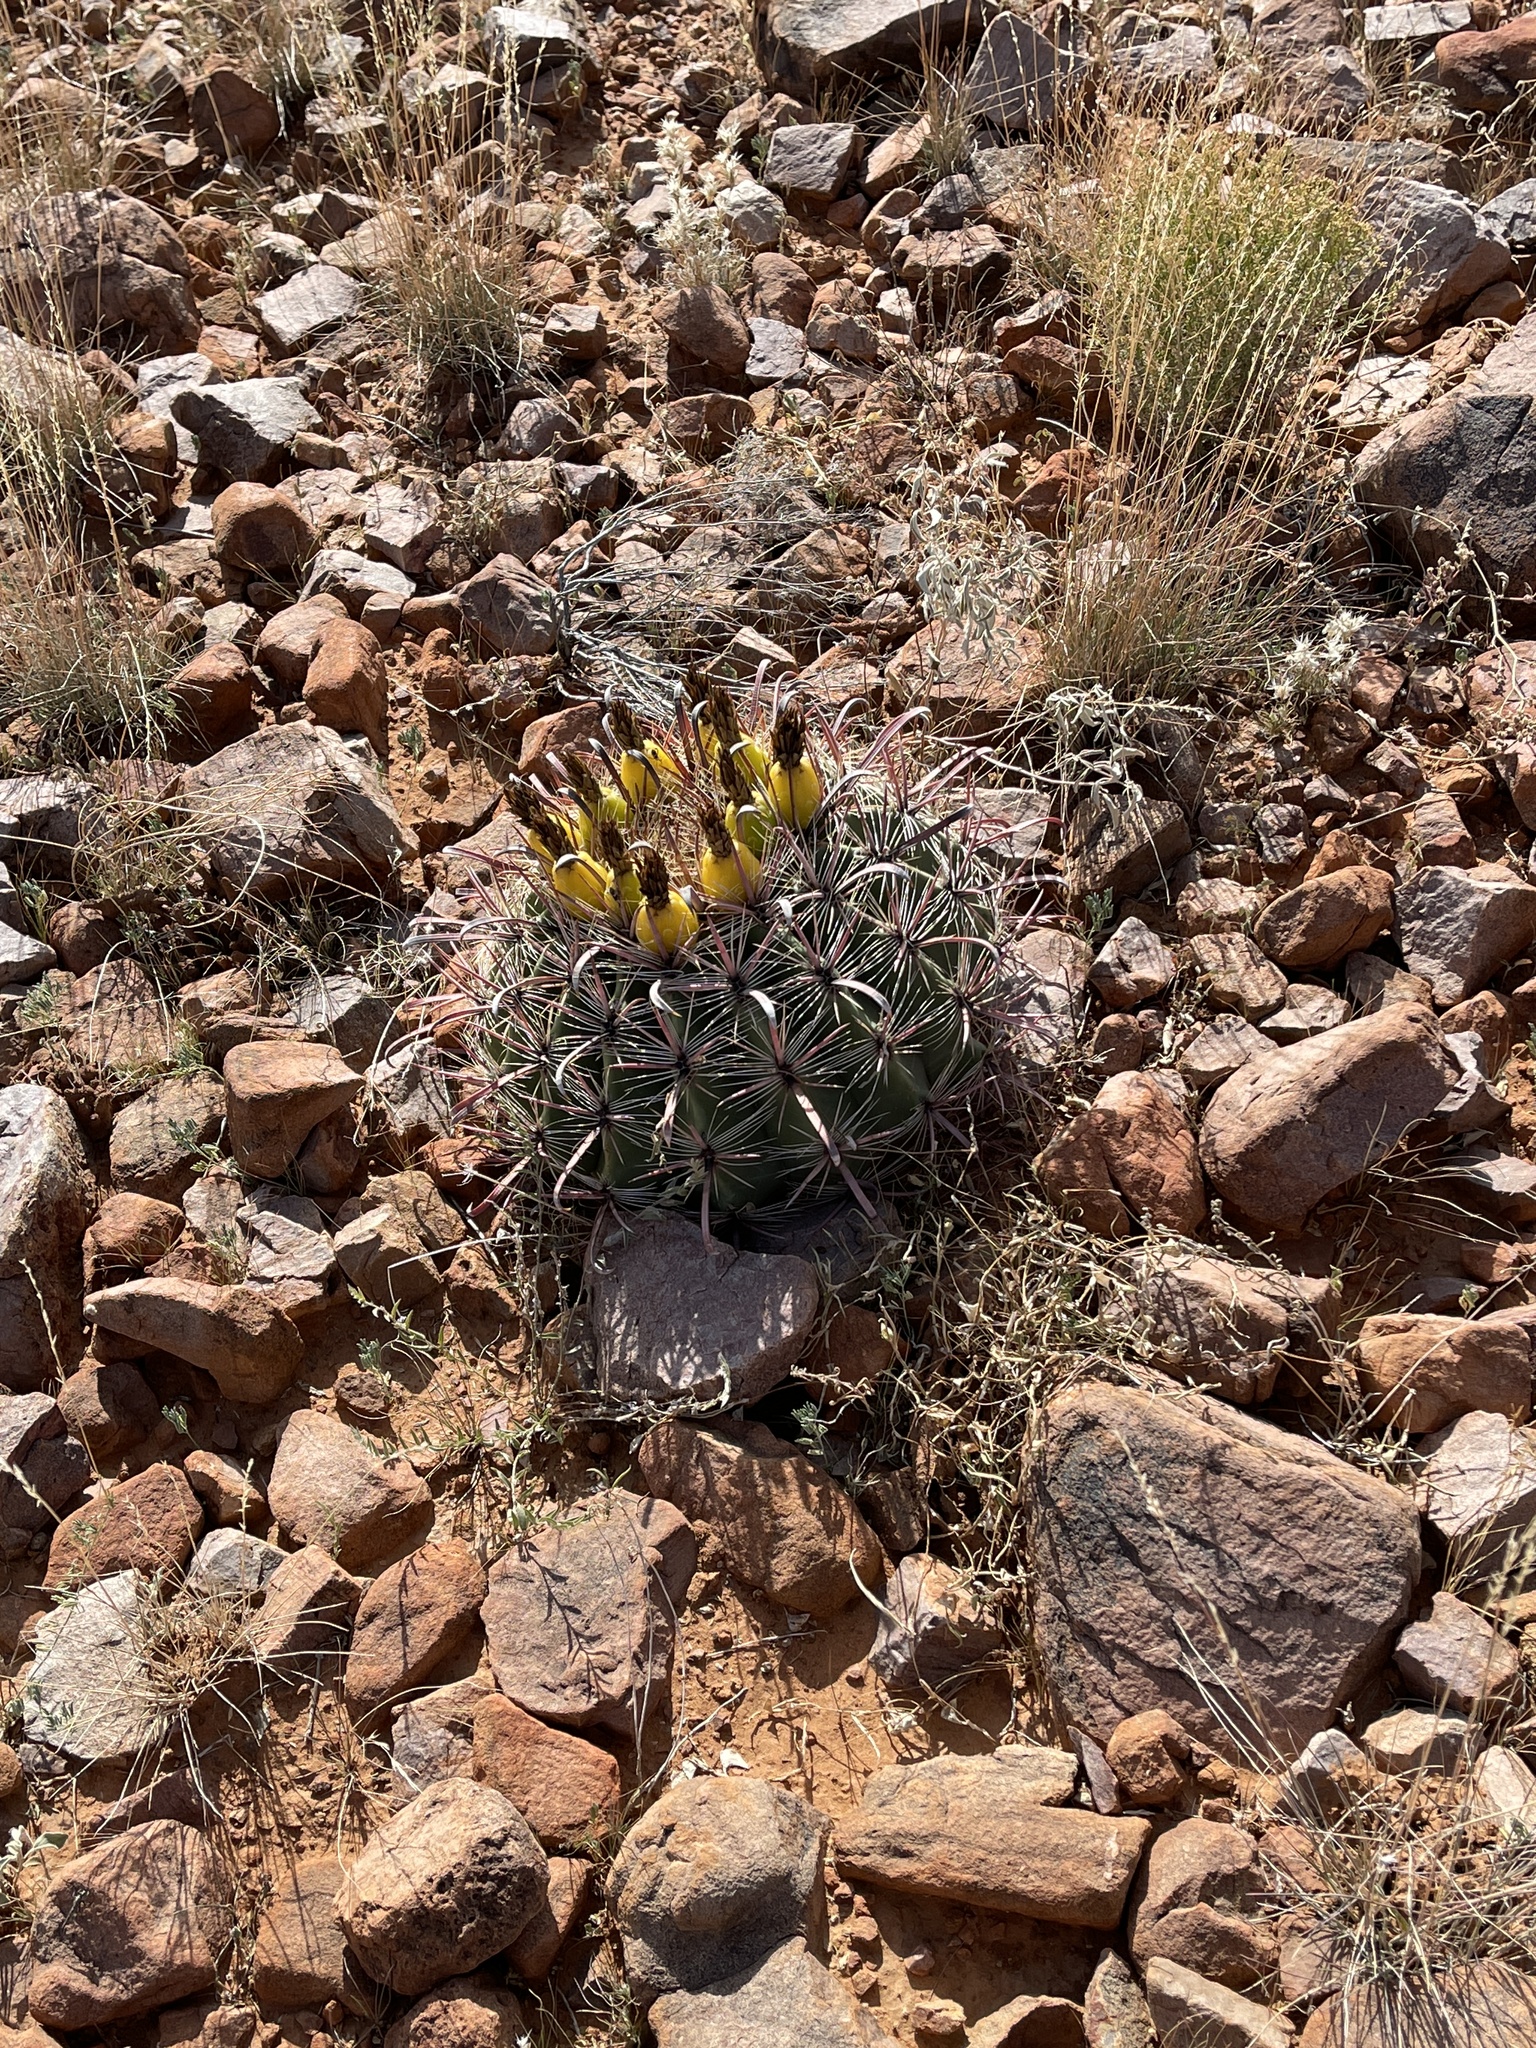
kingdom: Plantae
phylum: Tracheophyta
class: Magnoliopsida
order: Caryophyllales
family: Cactaceae
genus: Ferocactus
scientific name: Ferocactus wislizeni
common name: Candy barrel cactus
